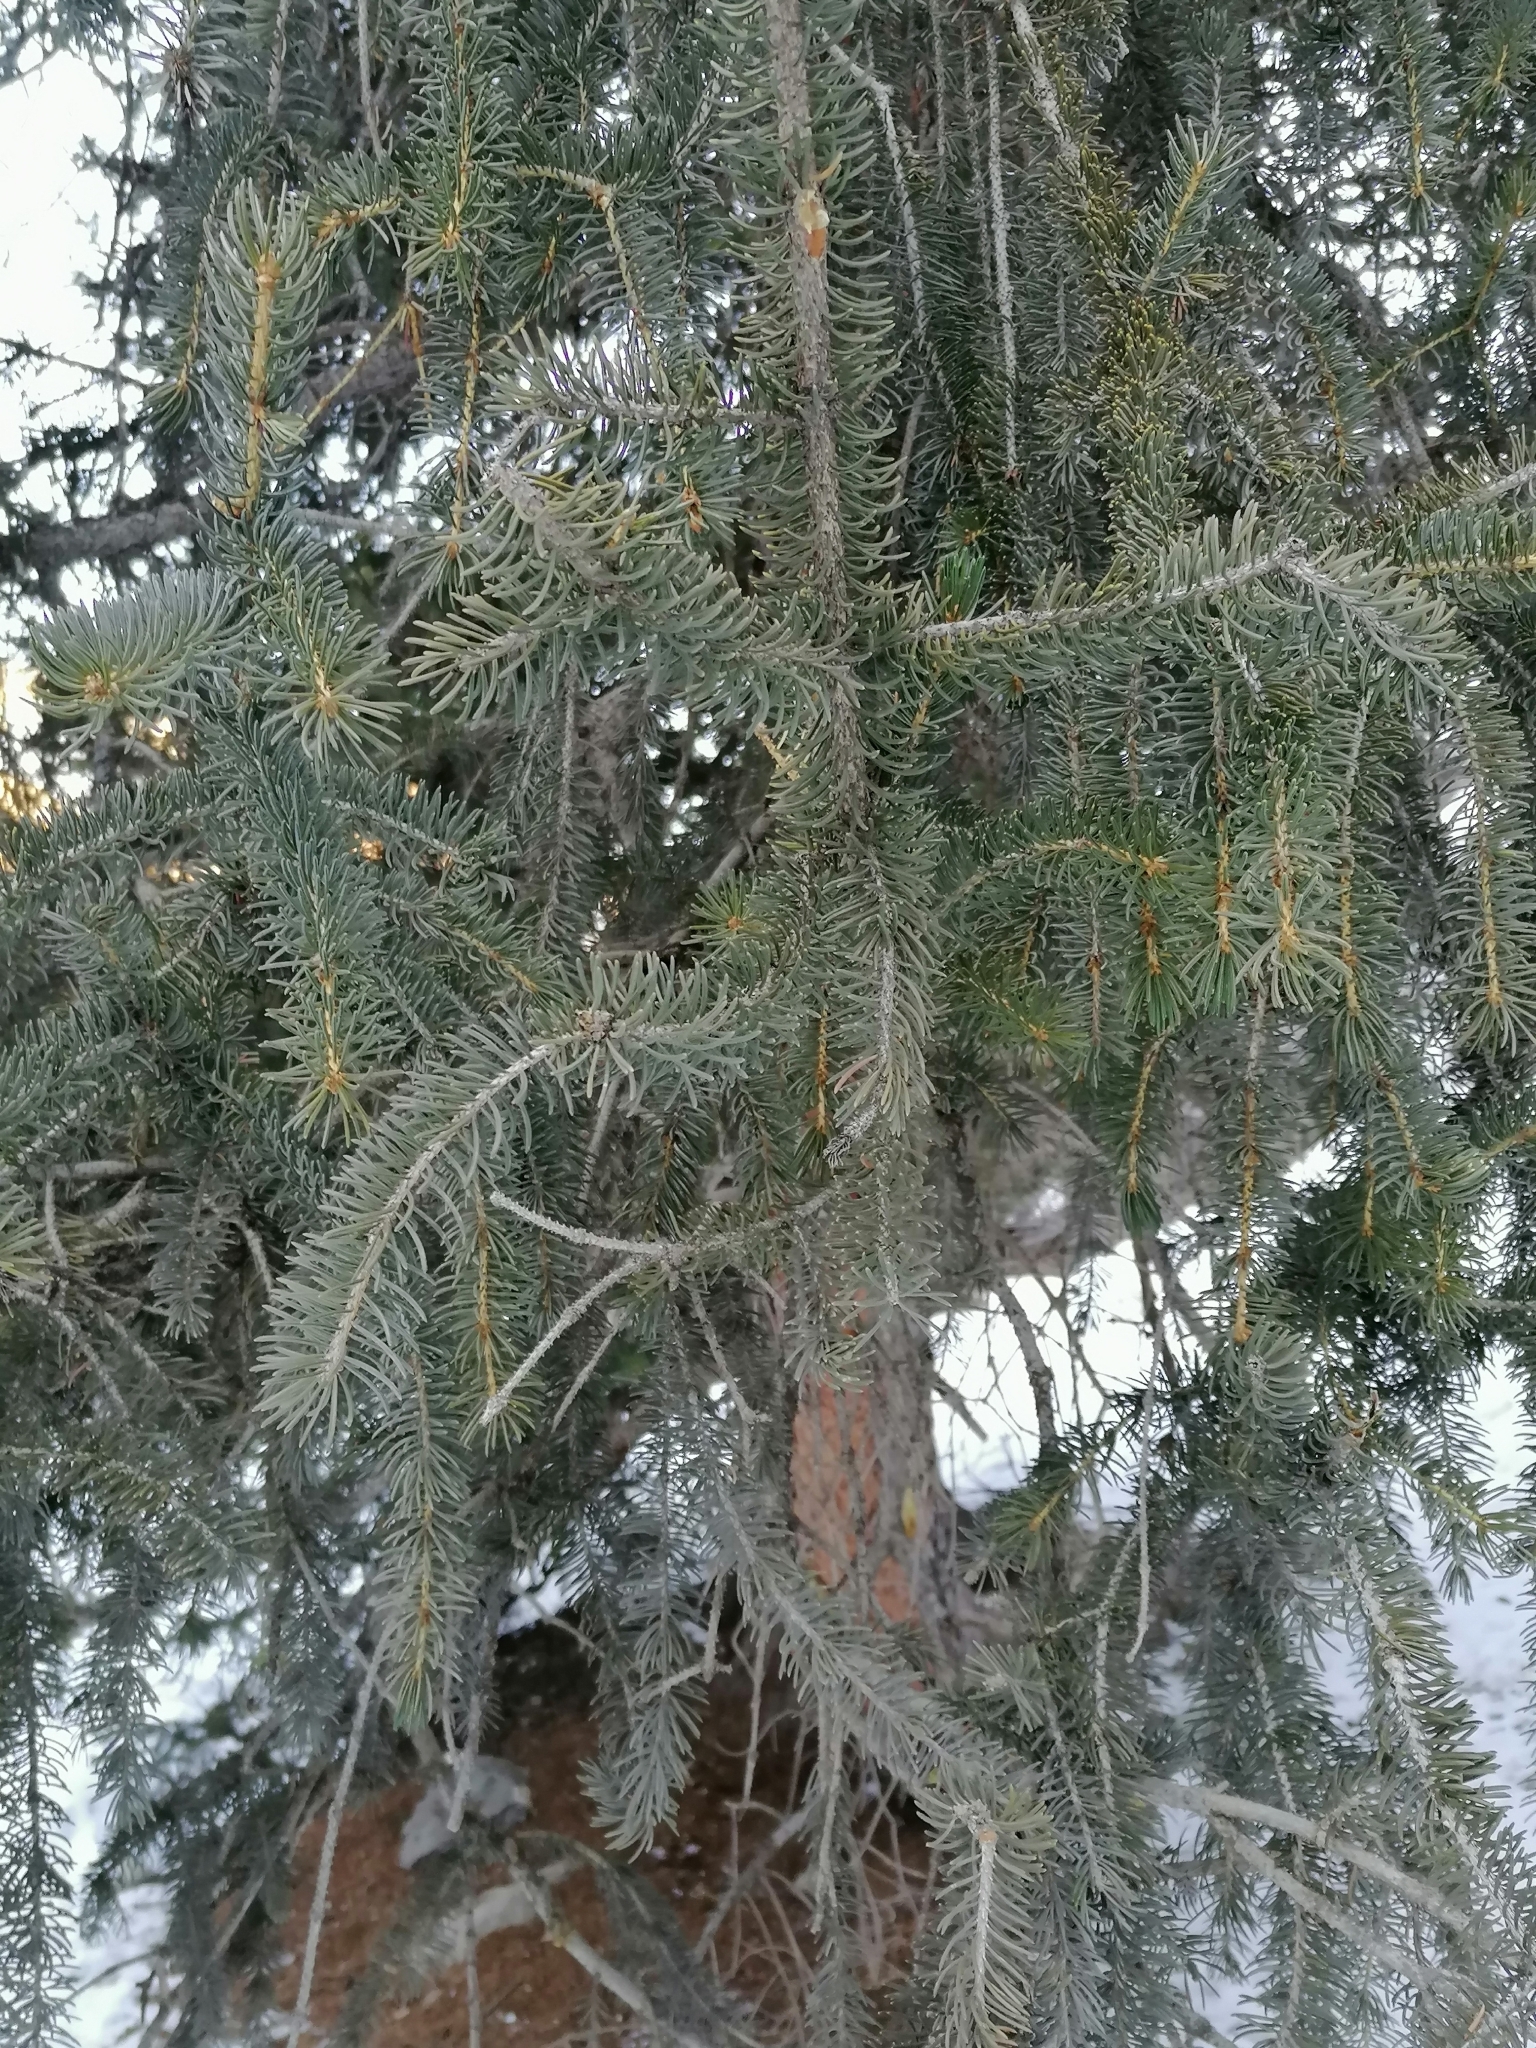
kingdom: Plantae
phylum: Tracheophyta
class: Pinopsida
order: Pinales
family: Pinaceae
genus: Picea
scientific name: Picea schrenkiana
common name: Asian spruce
